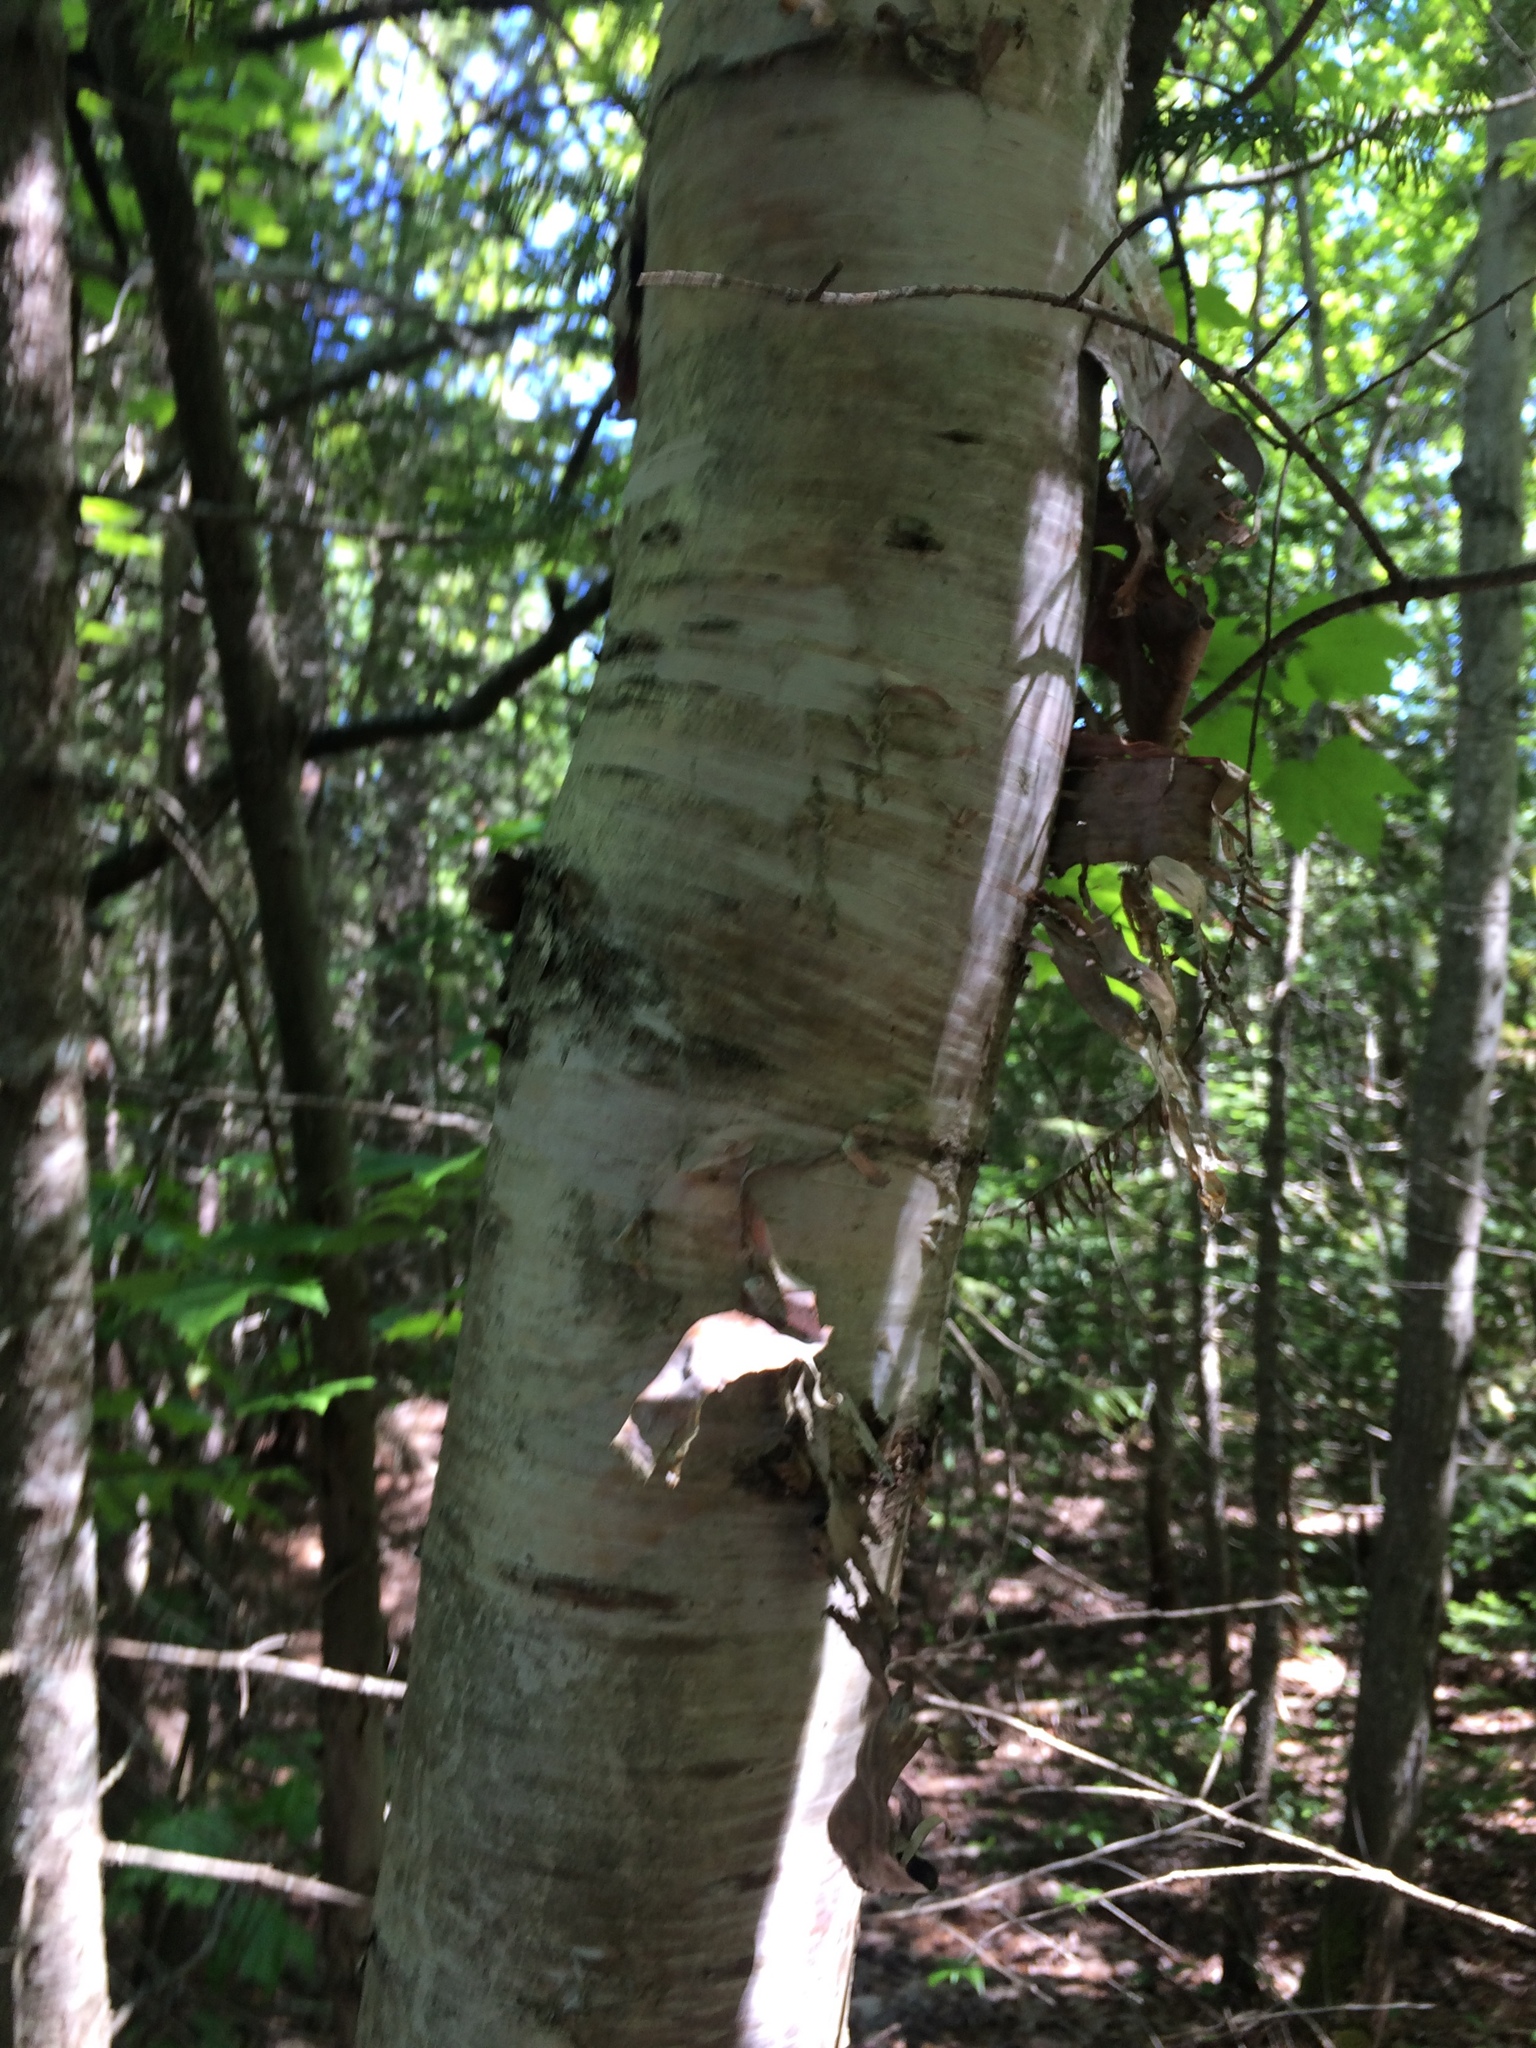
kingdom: Plantae
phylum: Tracheophyta
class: Magnoliopsida
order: Fagales
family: Betulaceae
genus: Betula
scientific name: Betula papyrifera
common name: Paper birch
